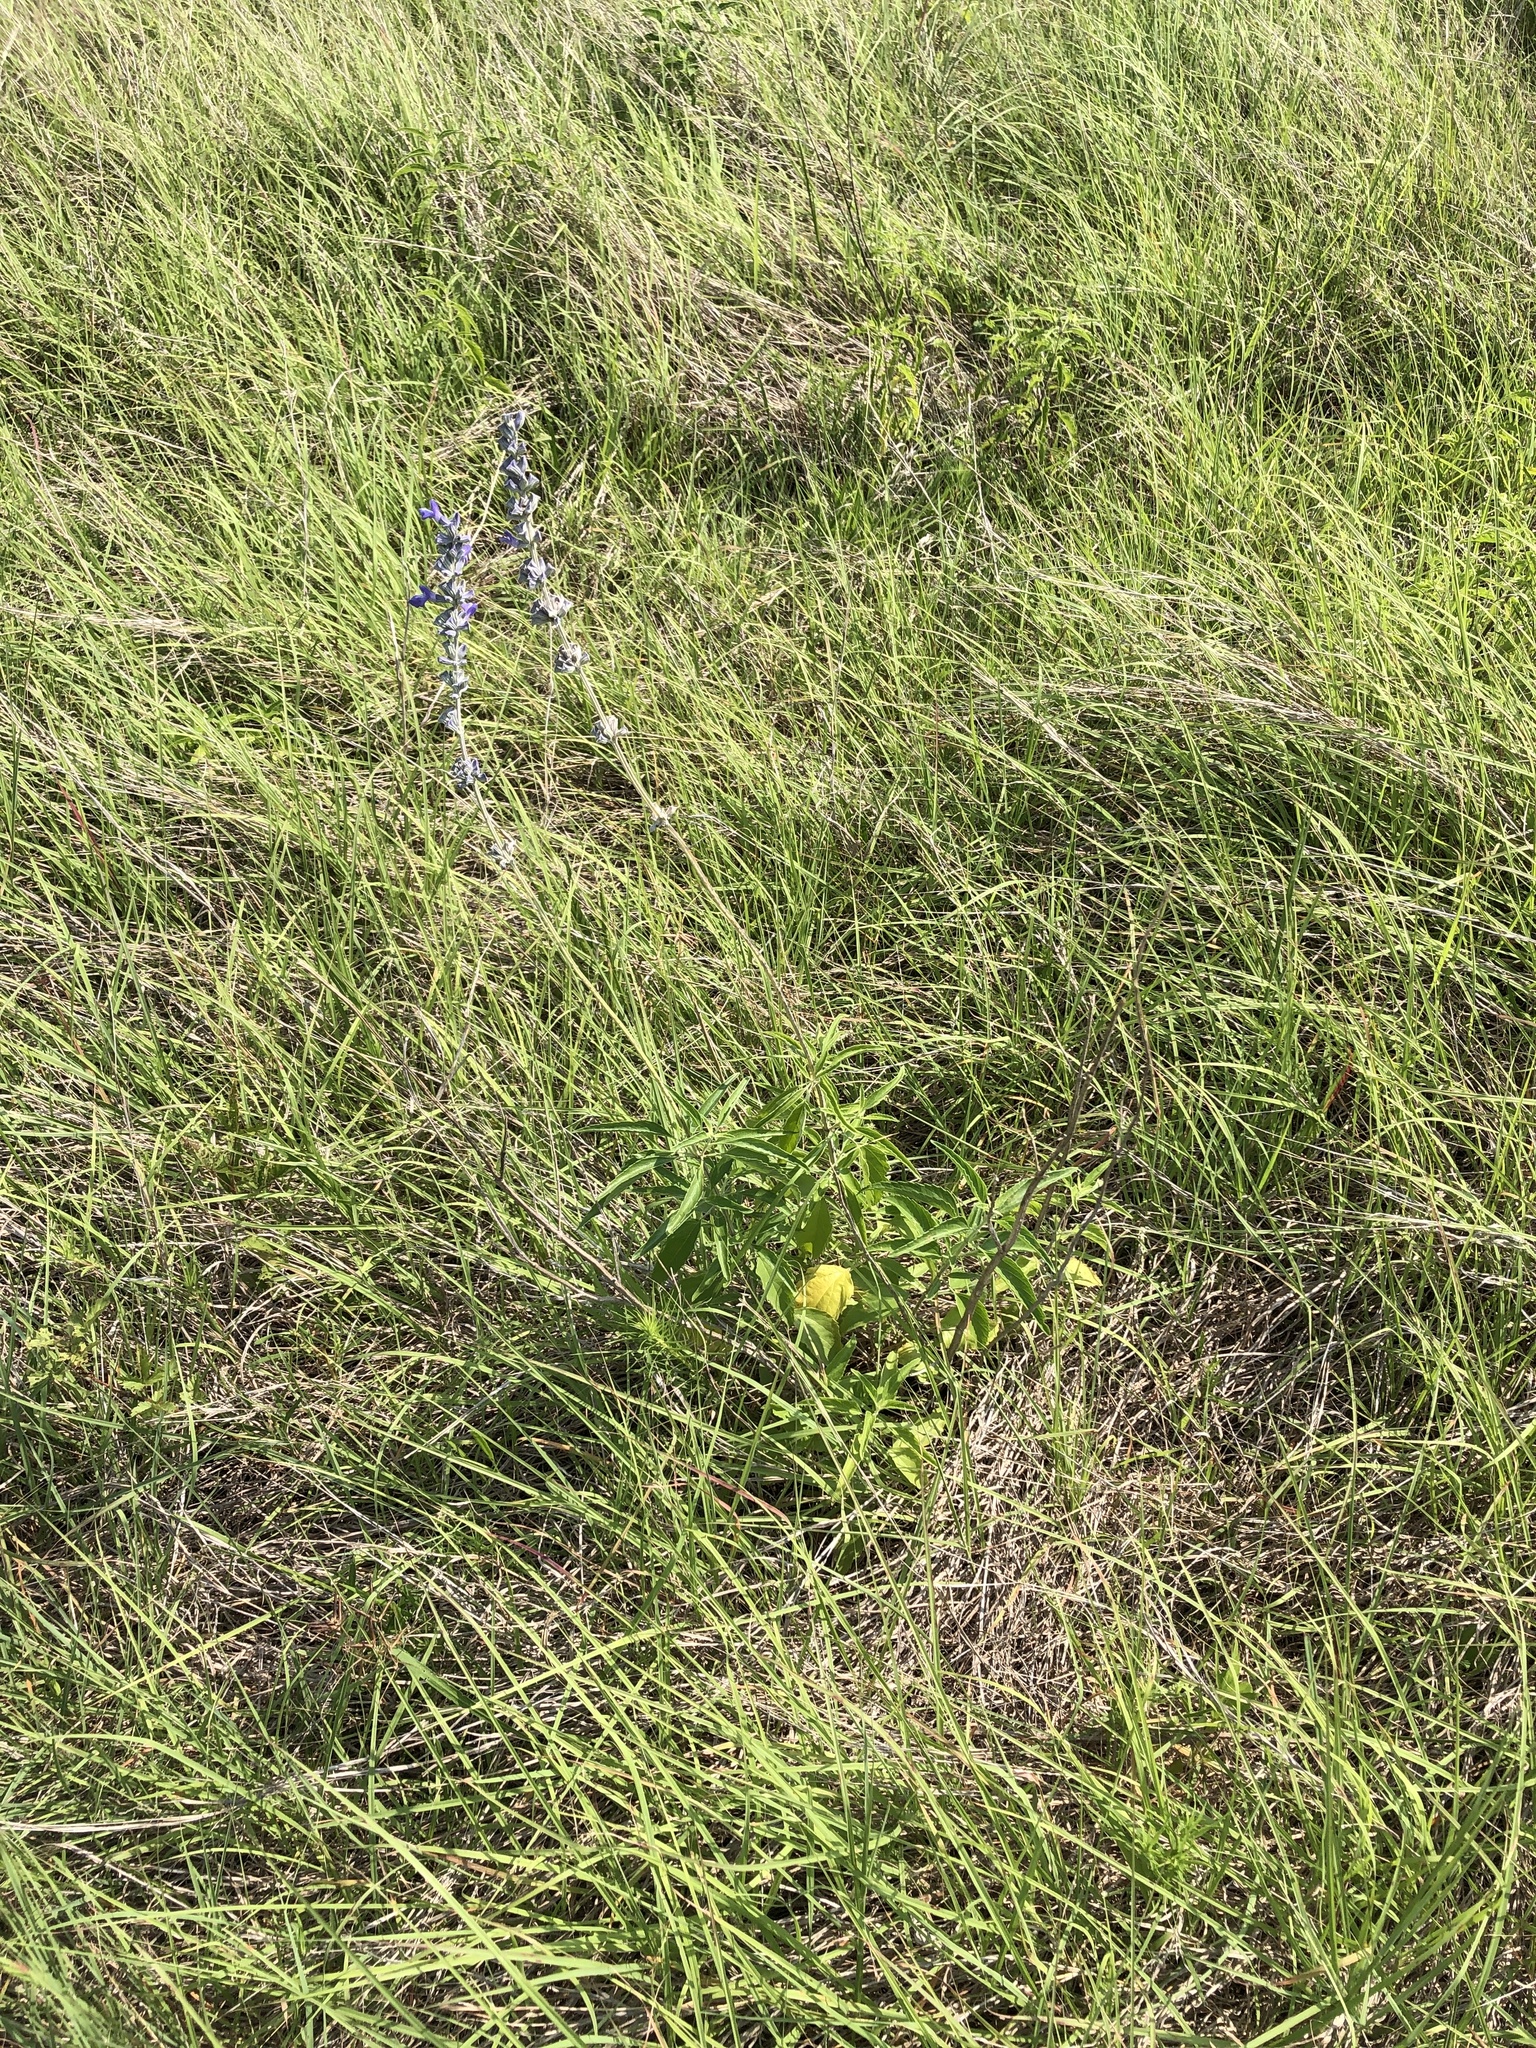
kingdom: Plantae
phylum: Tracheophyta
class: Magnoliopsida
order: Lamiales
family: Lamiaceae
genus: Salvia
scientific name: Salvia farinacea
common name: Mealy sage
